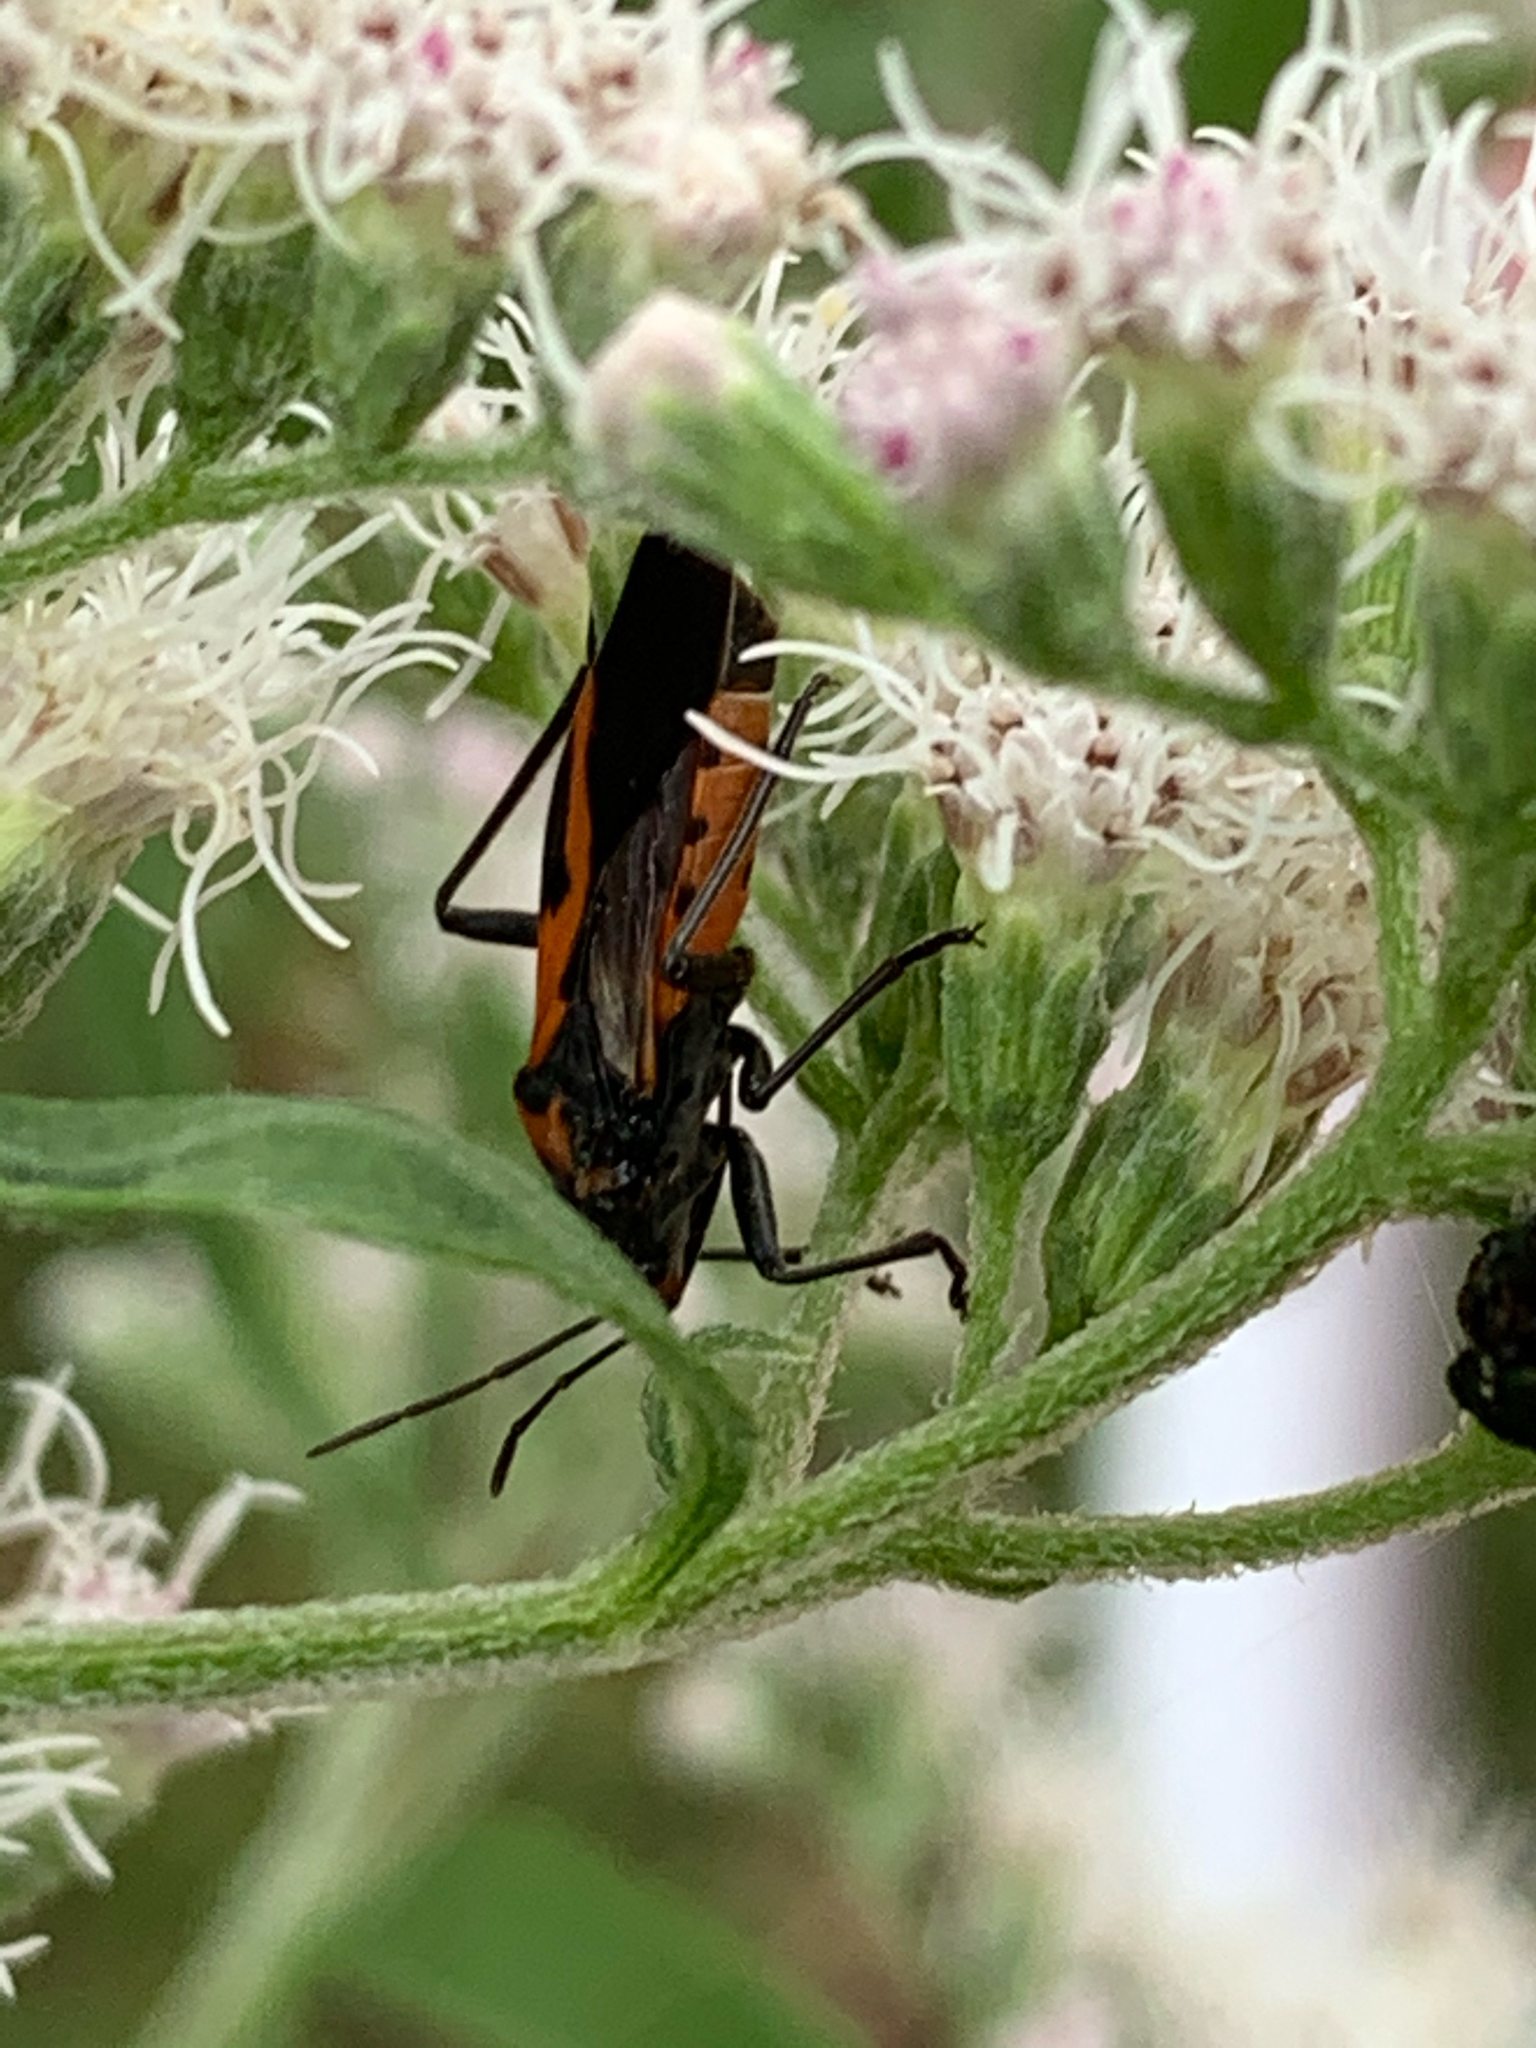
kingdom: Animalia
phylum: Arthropoda
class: Insecta
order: Hemiptera
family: Lygaeidae
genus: Lygaeus
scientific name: Lygaeus turcicus
